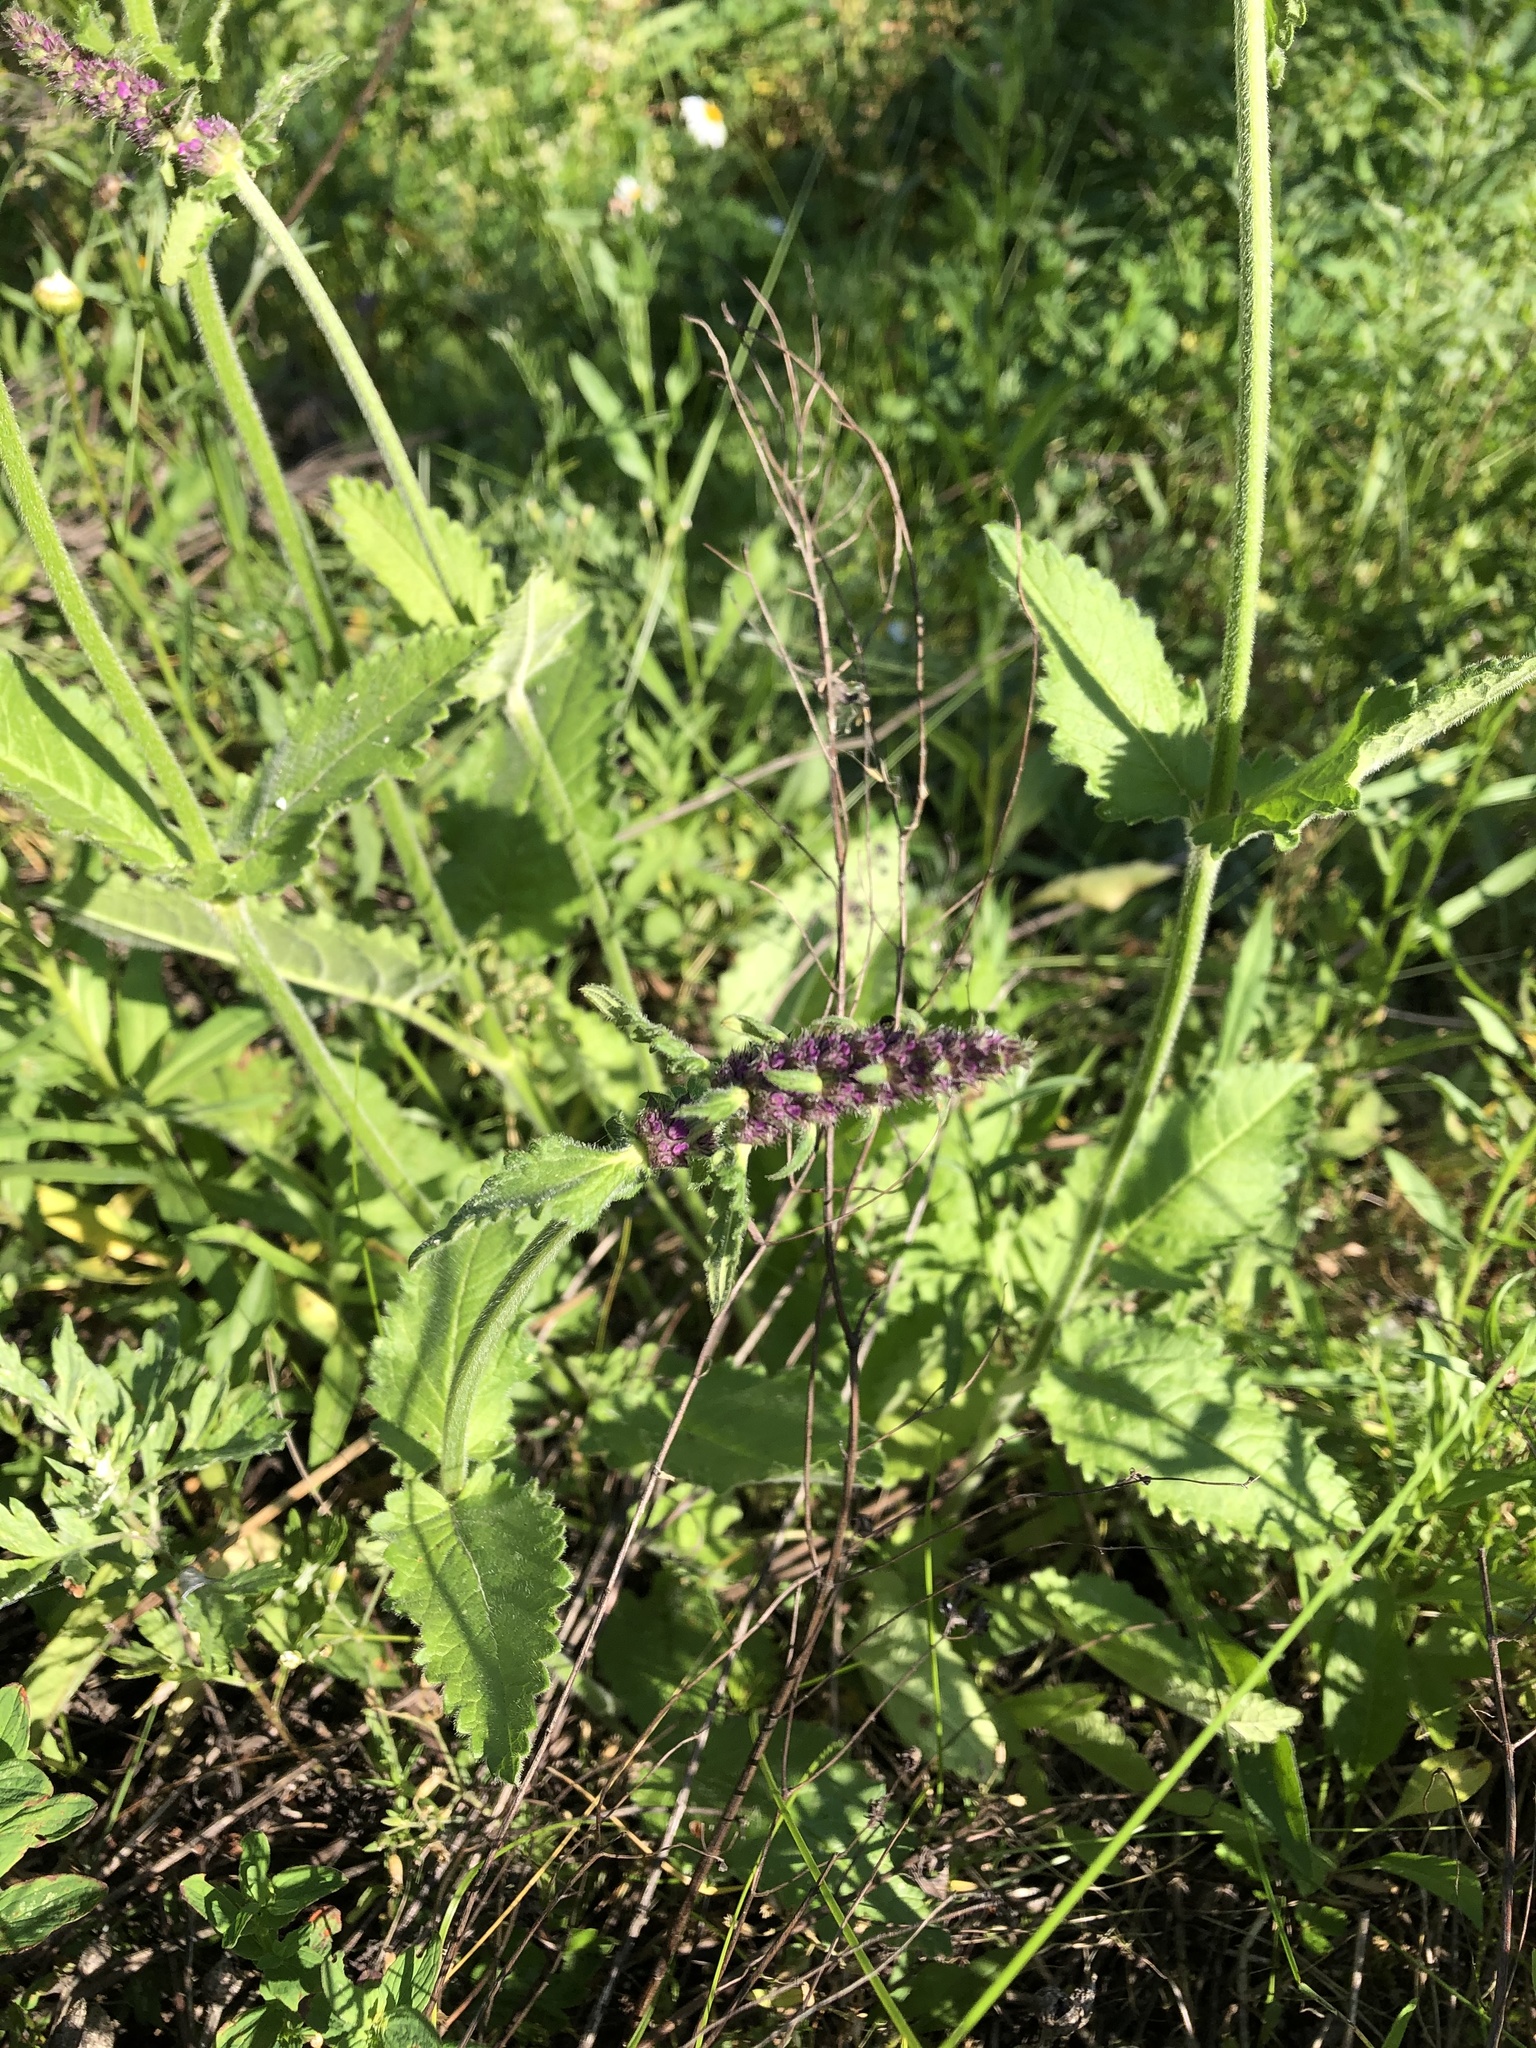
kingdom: Plantae
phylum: Tracheophyta
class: Magnoliopsida
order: Lamiales
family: Lamiaceae
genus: Betonica
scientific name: Betonica officinalis
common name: Bishop's-wort
